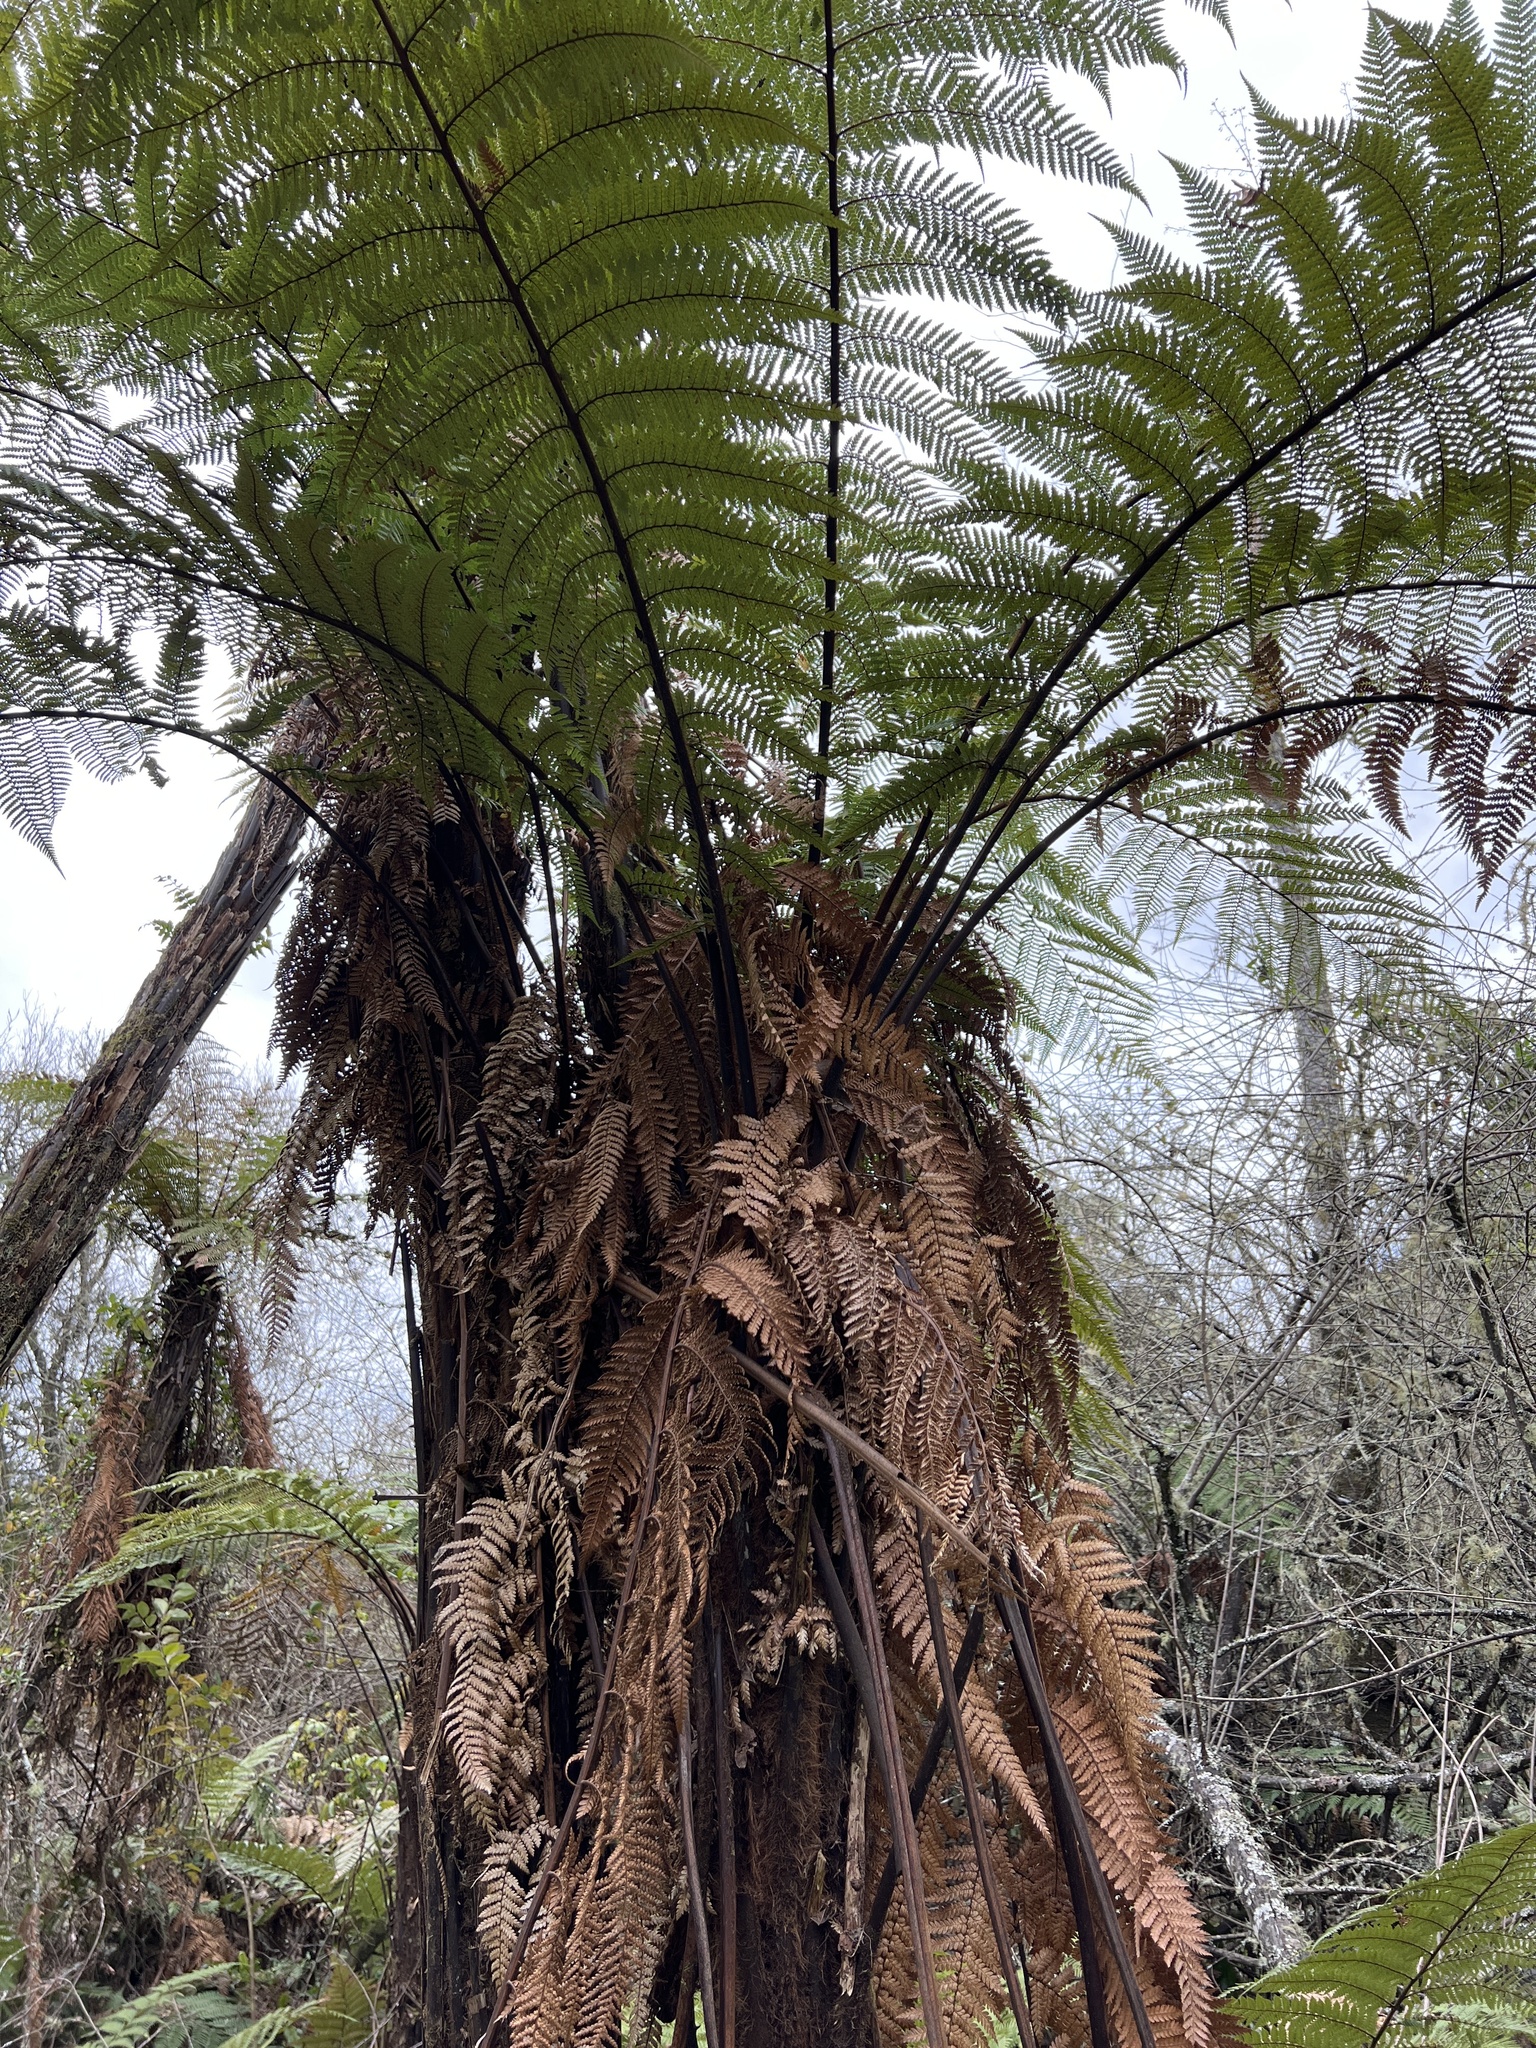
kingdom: Plantae
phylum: Tracheophyta
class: Polypodiopsida
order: Cyatheales
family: Dicksoniaceae
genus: Dicksonia
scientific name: Dicksonia squarrosa
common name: Hard treefern
